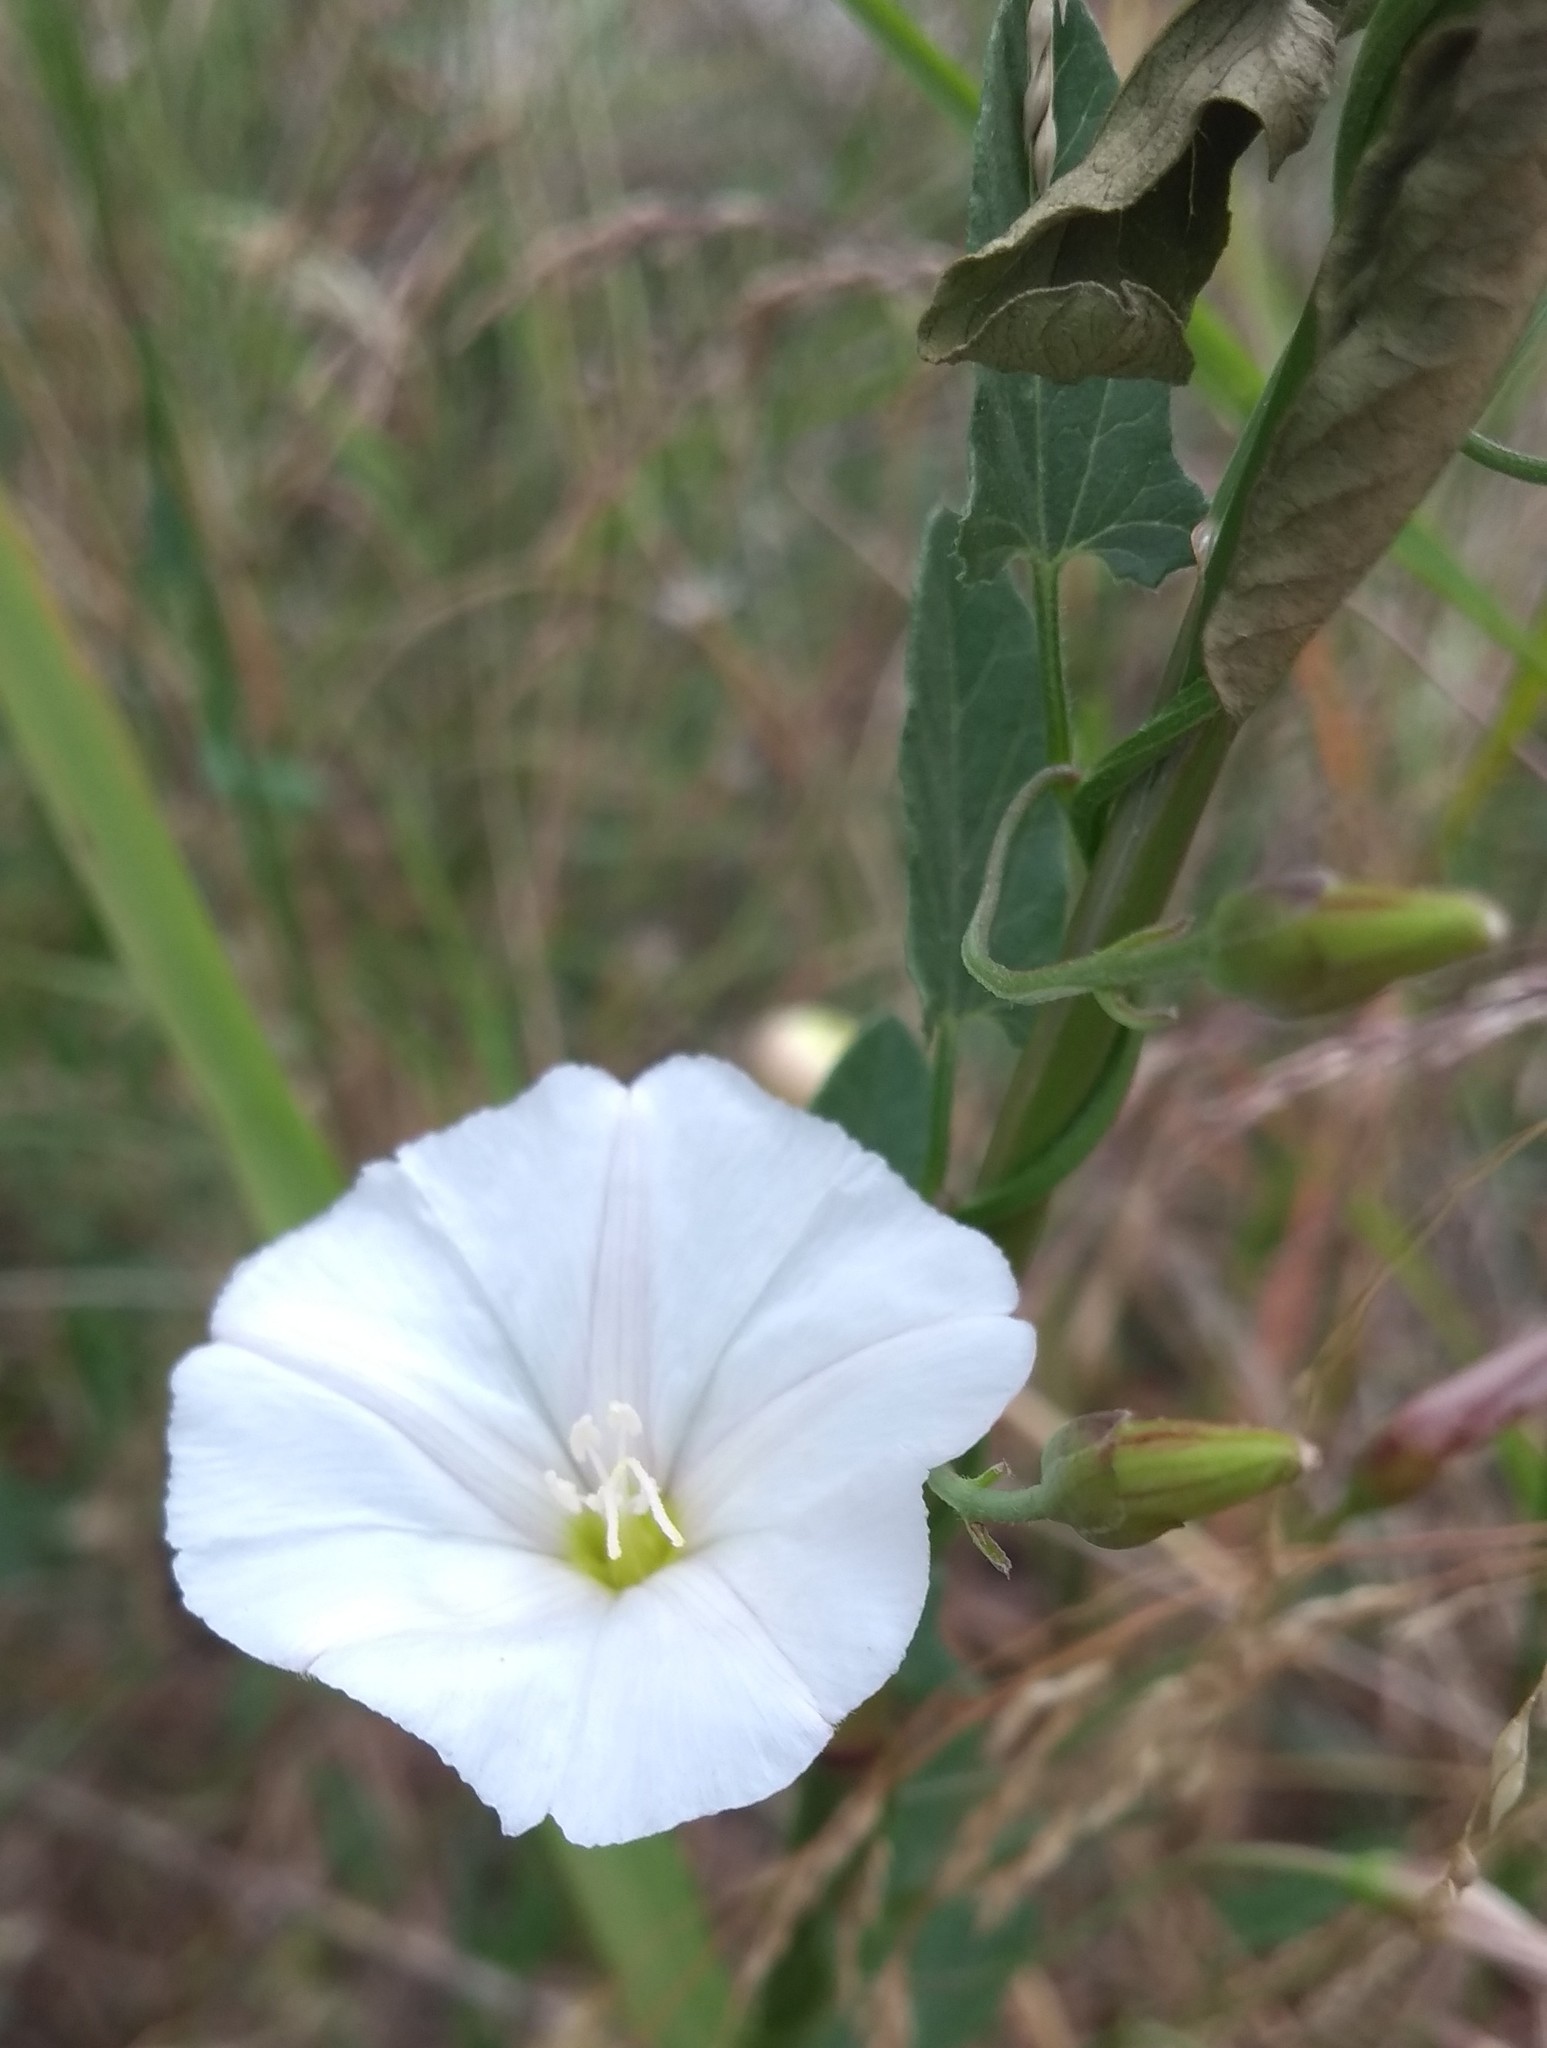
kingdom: Plantae
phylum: Tracheophyta
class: Magnoliopsida
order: Solanales
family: Convolvulaceae
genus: Convolvulus
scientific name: Convolvulus arvensis
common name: Field bindweed
